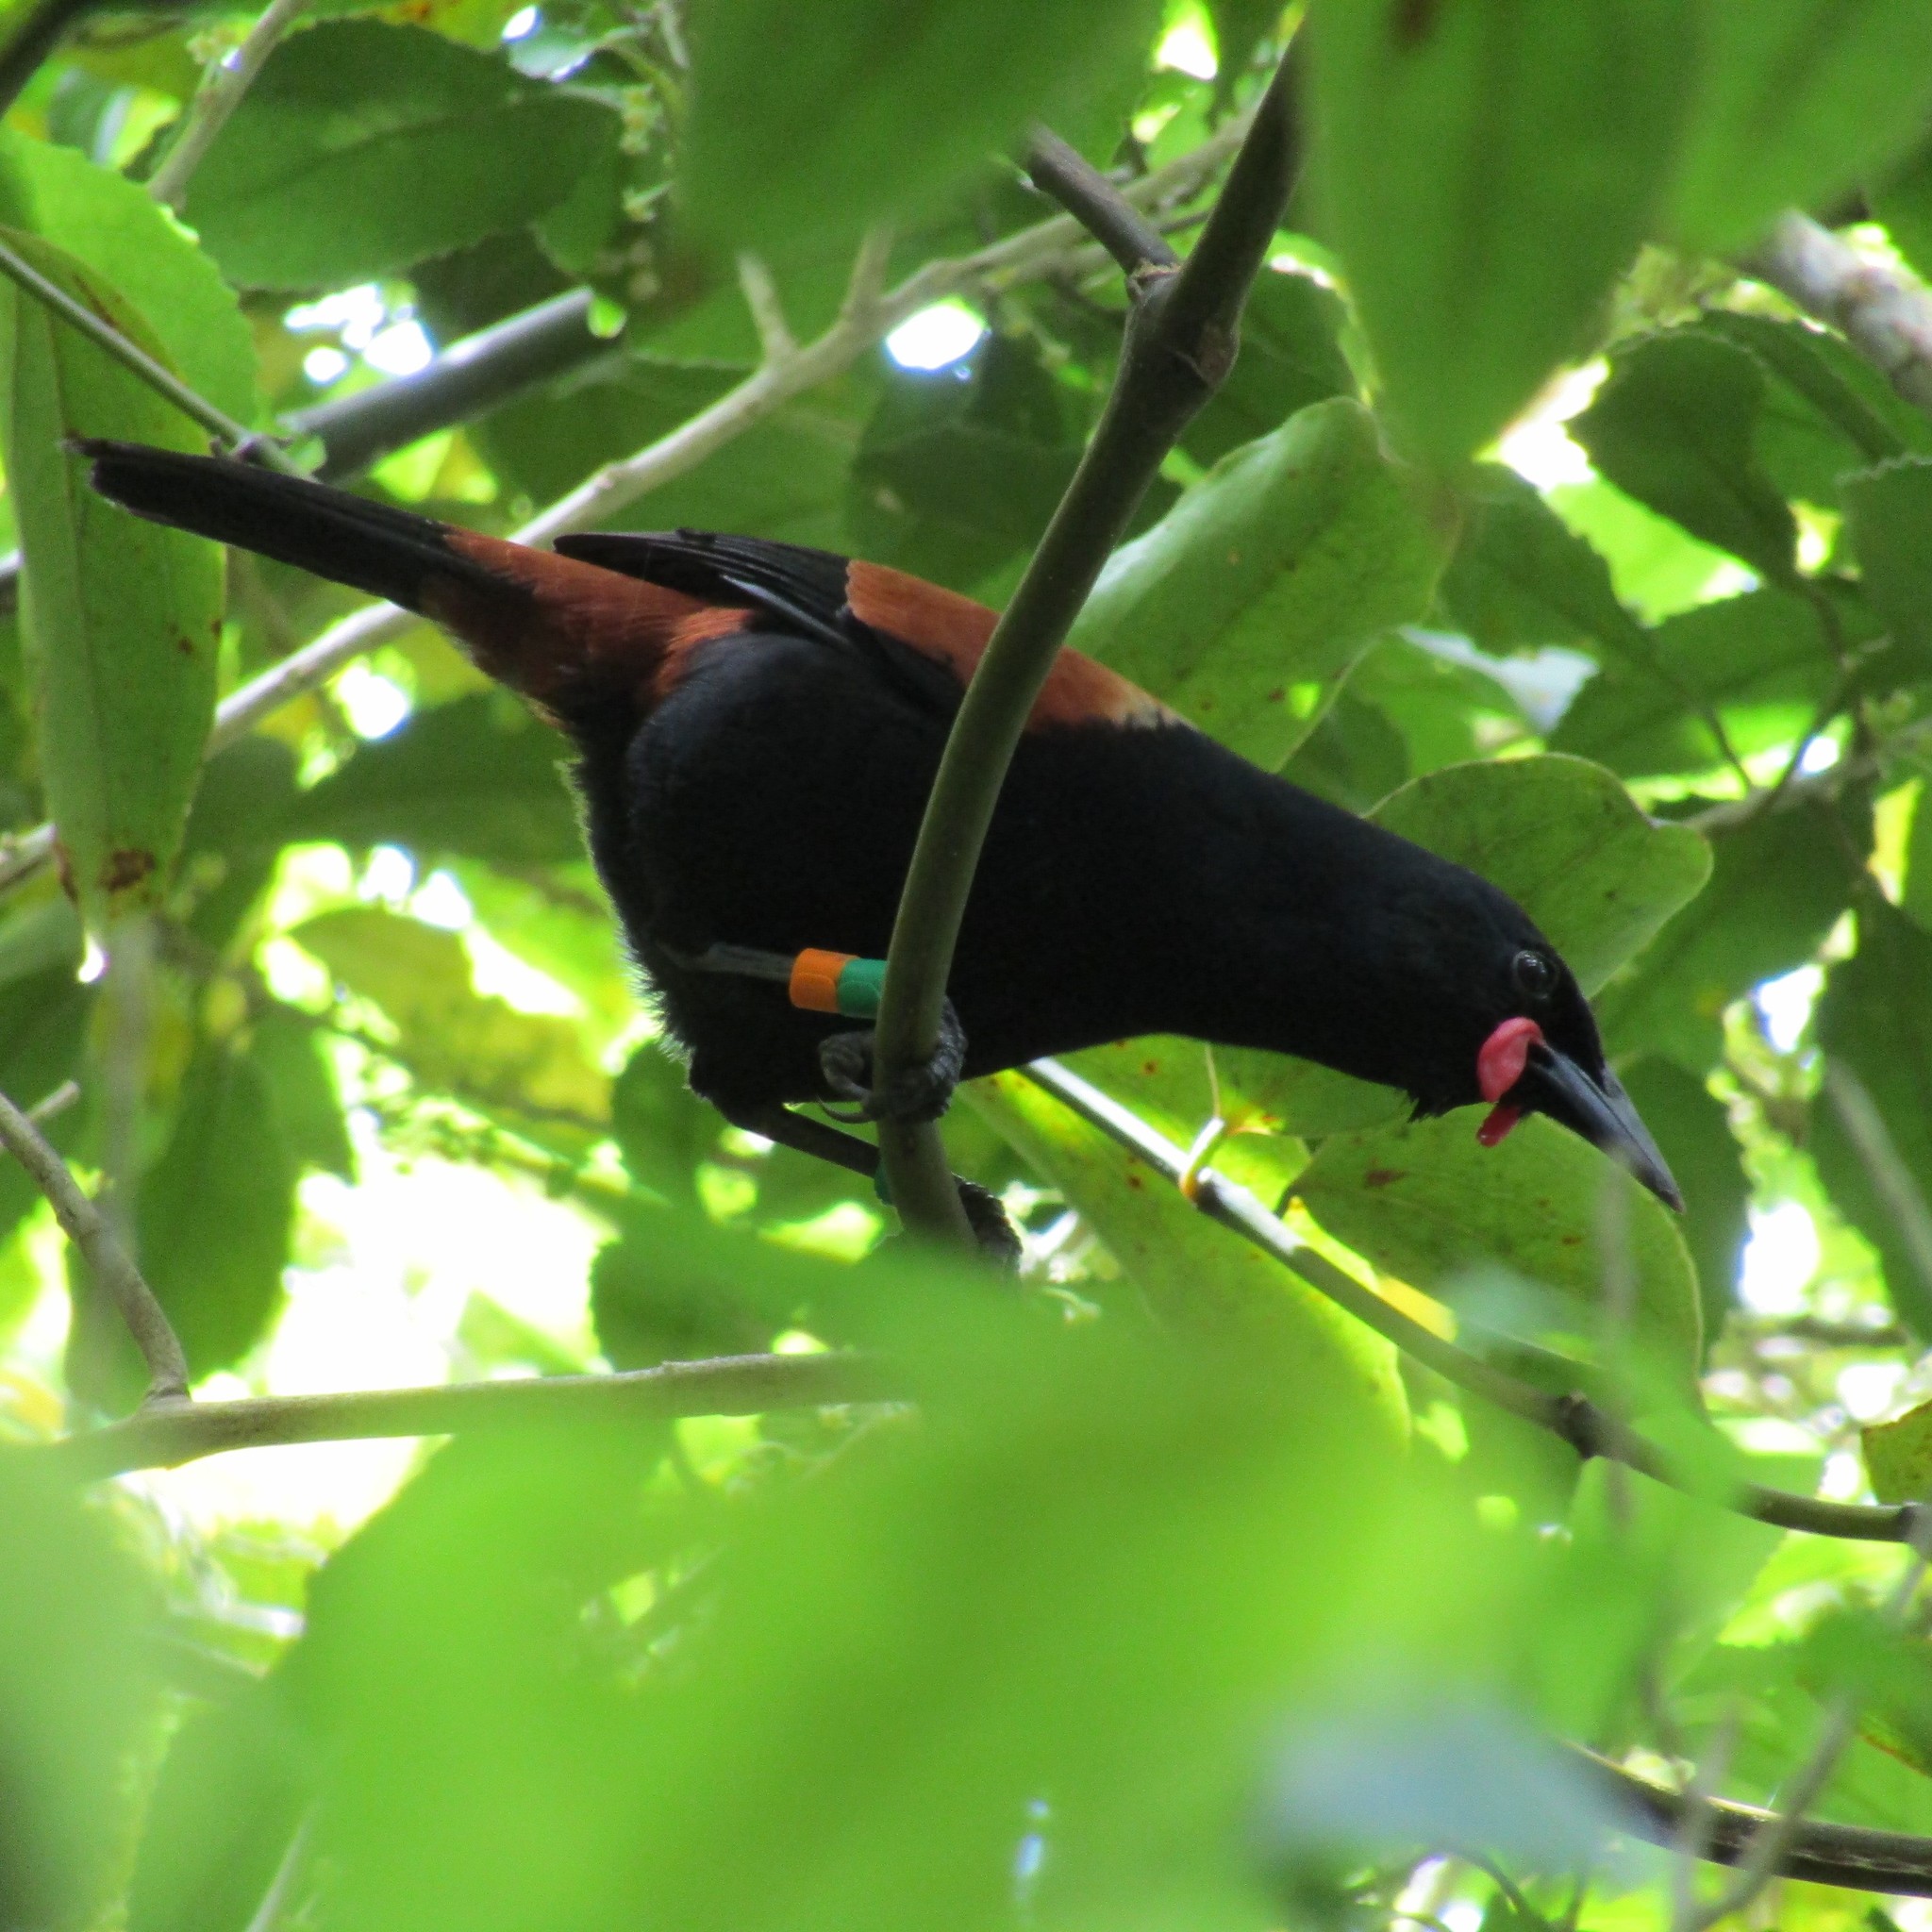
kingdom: Animalia
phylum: Chordata
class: Aves
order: Passeriformes
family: Callaeatidae
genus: Philesturnus
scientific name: Philesturnus carunculatus
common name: South island saddleback
